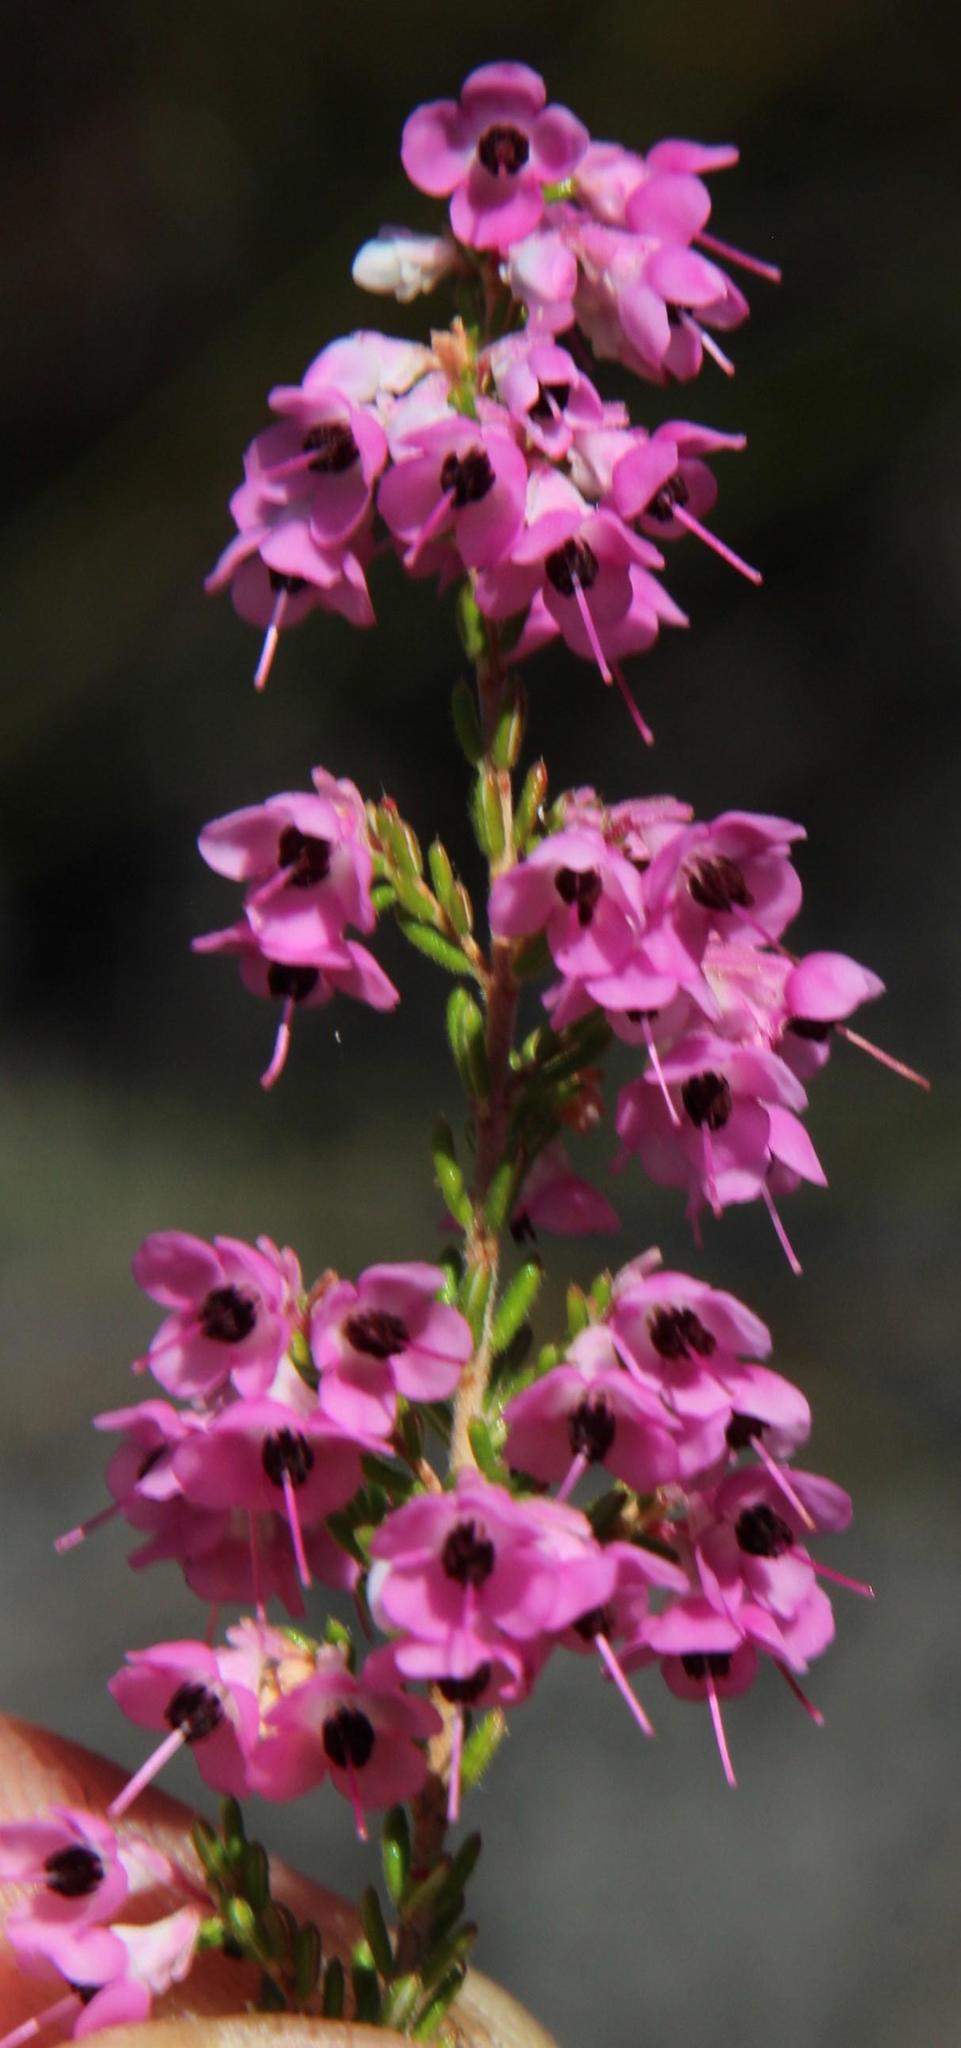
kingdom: Plantae
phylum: Tracheophyta
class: Magnoliopsida
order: Ericales
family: Ericaceae
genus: Erica
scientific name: Erica melanthera
